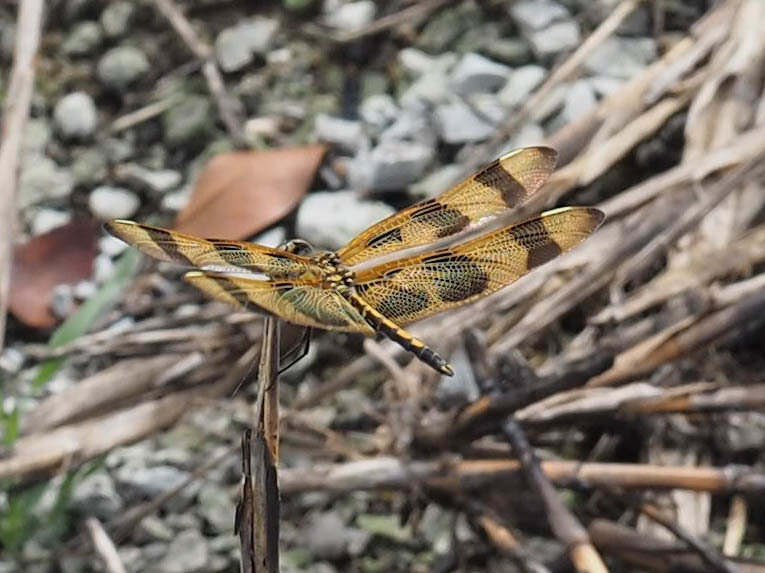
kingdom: Animalia
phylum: Arthropoda
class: Insecta
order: Odonata
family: Libellulidae
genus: Celithemis
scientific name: Celithemis eponina
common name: Halloween pennant
